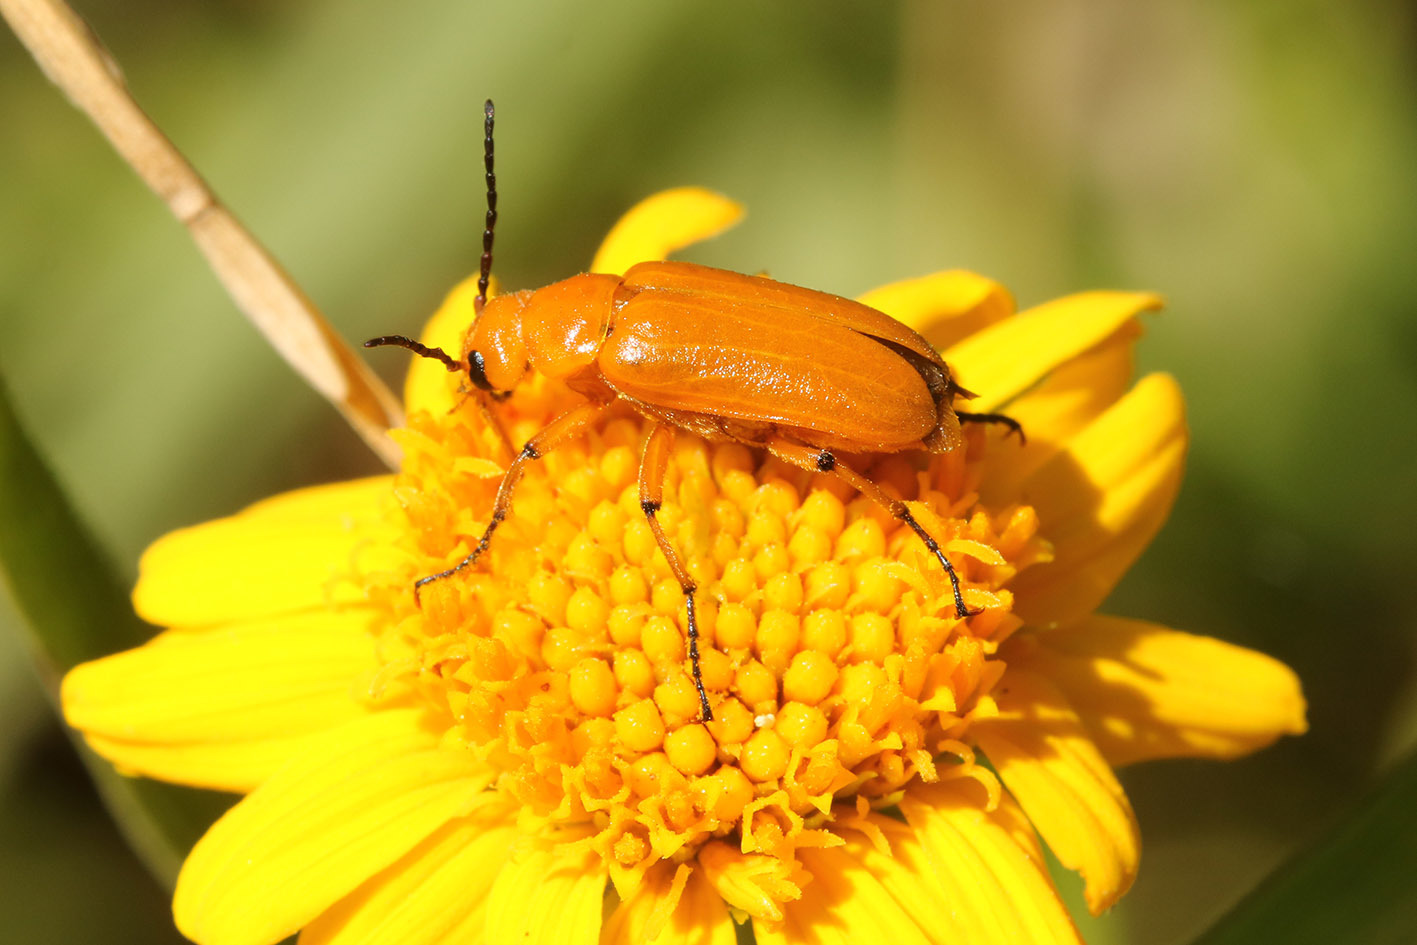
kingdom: Animalia
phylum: Arthropoda
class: Insecta
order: Coleoptera
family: Meloidae
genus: Nemognatha
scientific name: Nemognatha
